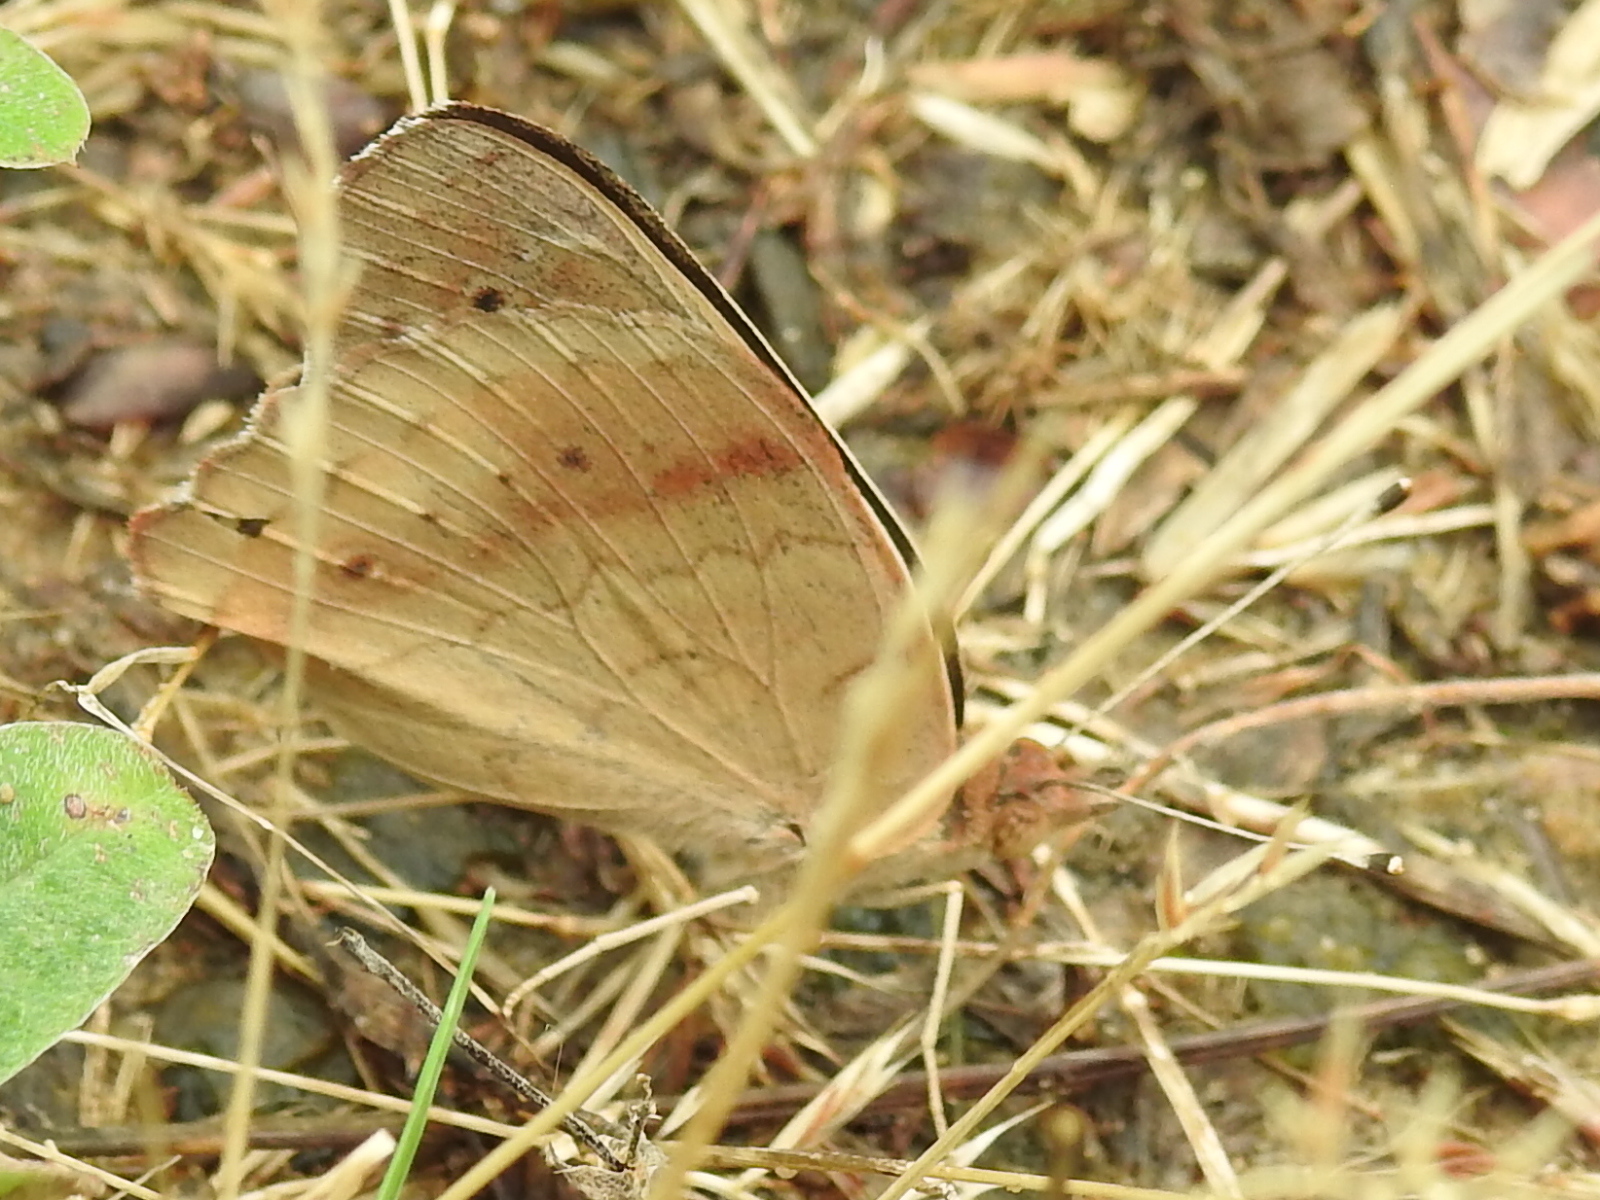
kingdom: Animalia
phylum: Arthropoda
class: Insecta
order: Lepidoptera
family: Nymphalidae
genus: Junonia
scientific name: Junonia coenia
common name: Common buckeye
